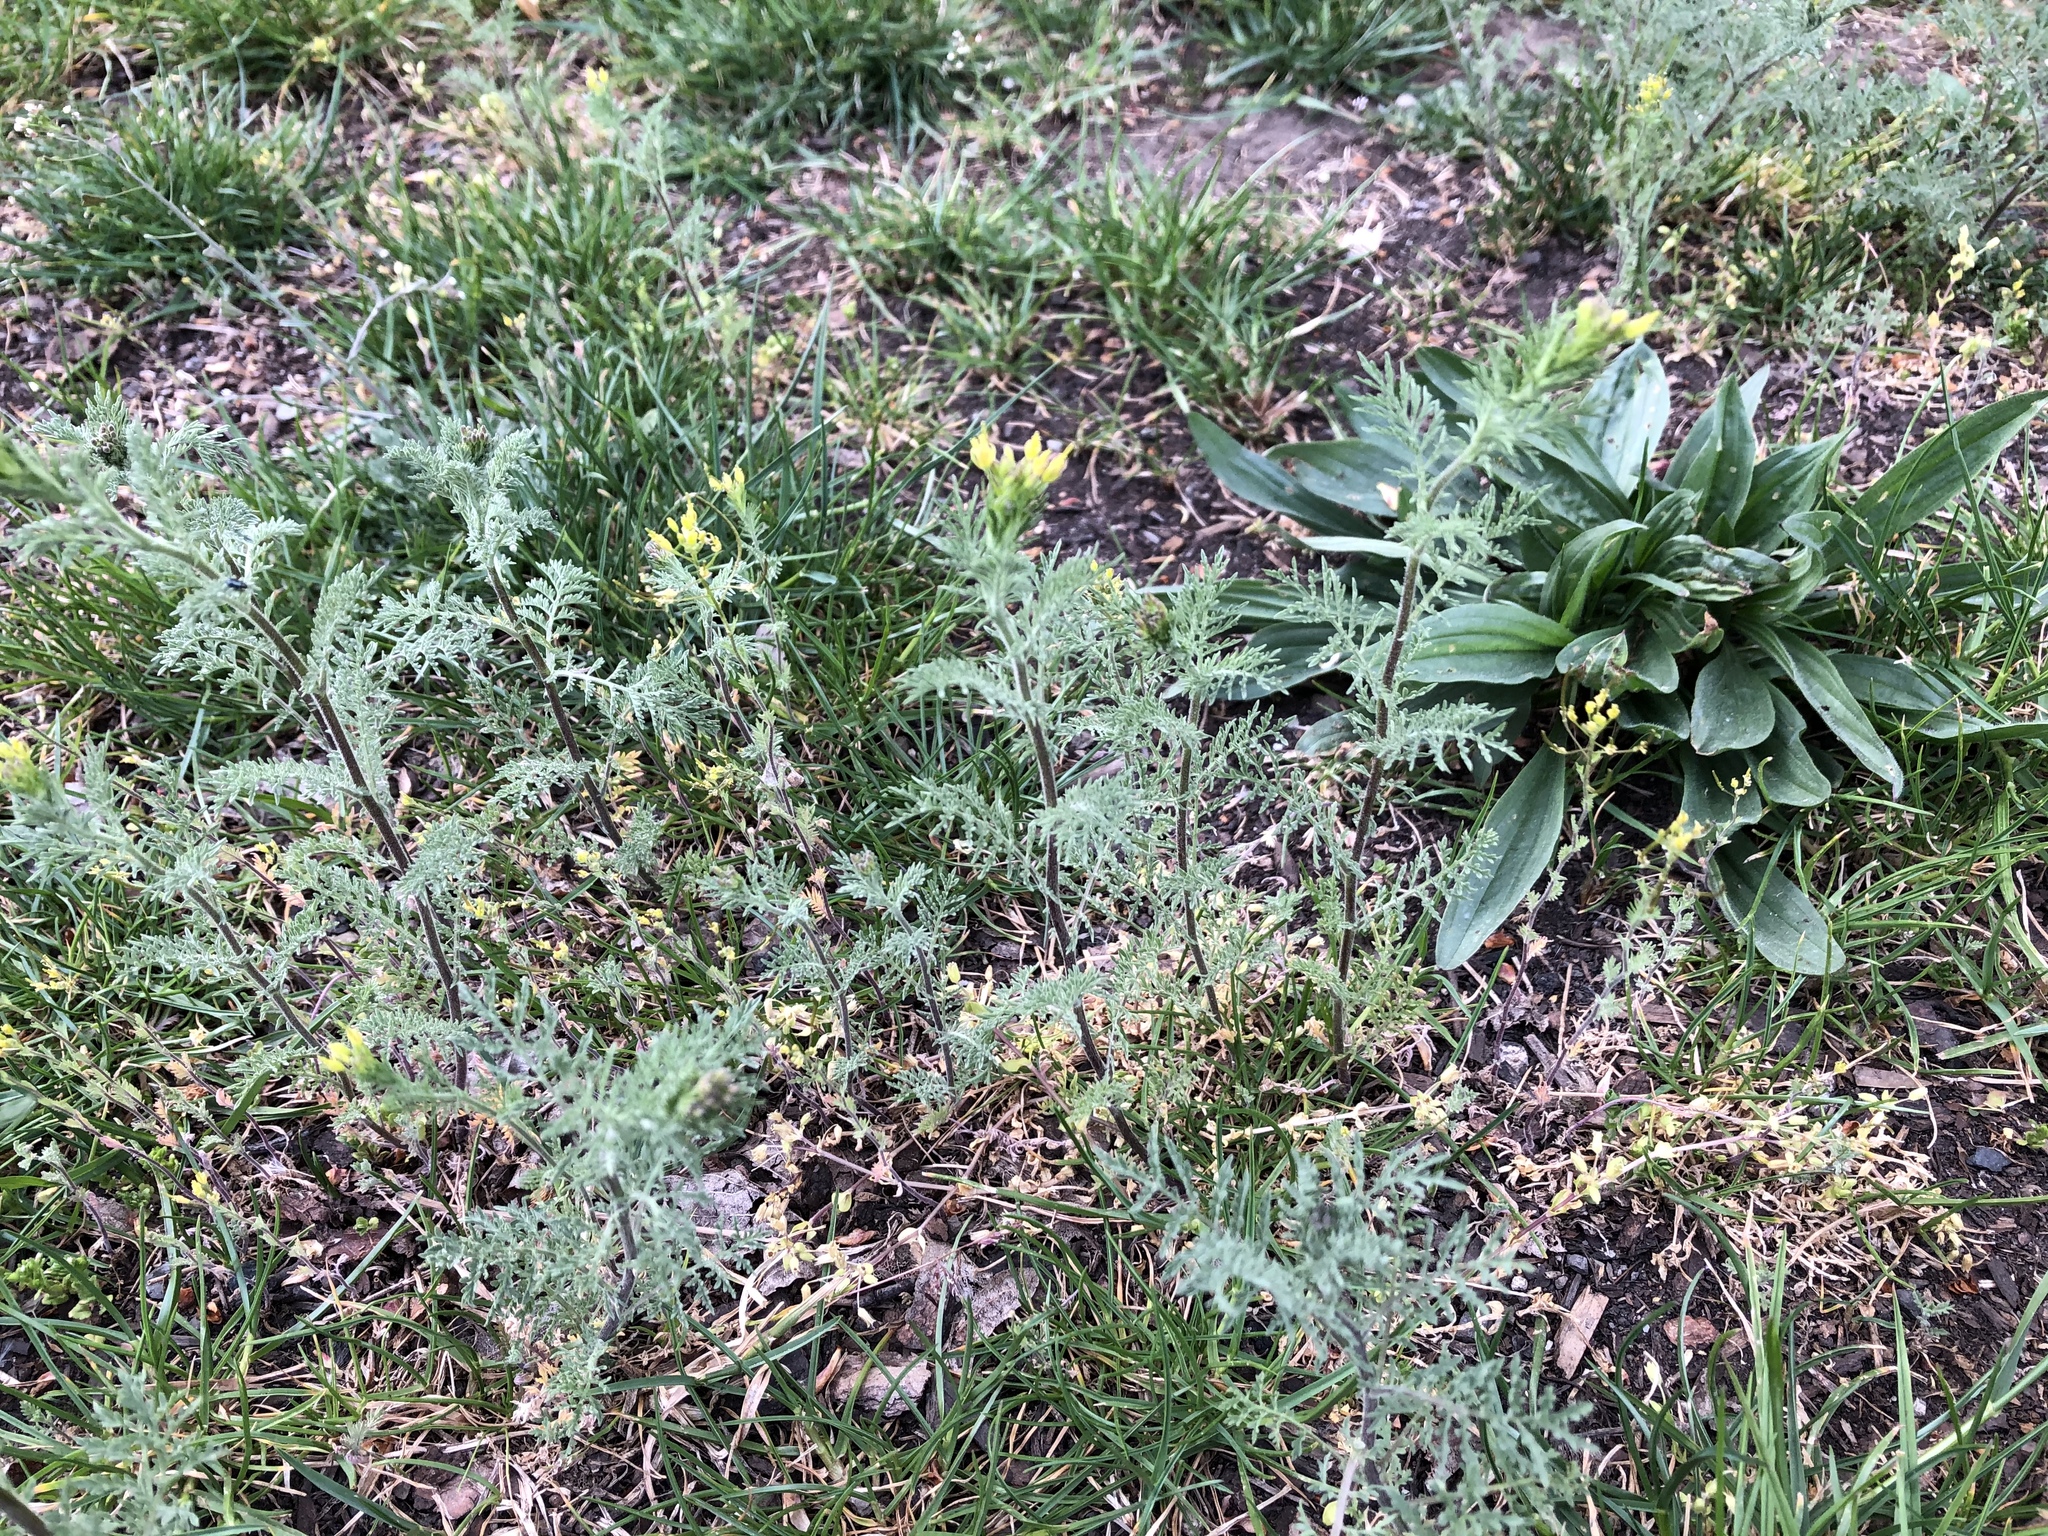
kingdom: Plantae
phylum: Tracheophyta
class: Magnoliopsida
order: Brassicales
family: Brassicaceae
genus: Descurainia
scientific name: Descurainia sophia
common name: Flixweed
